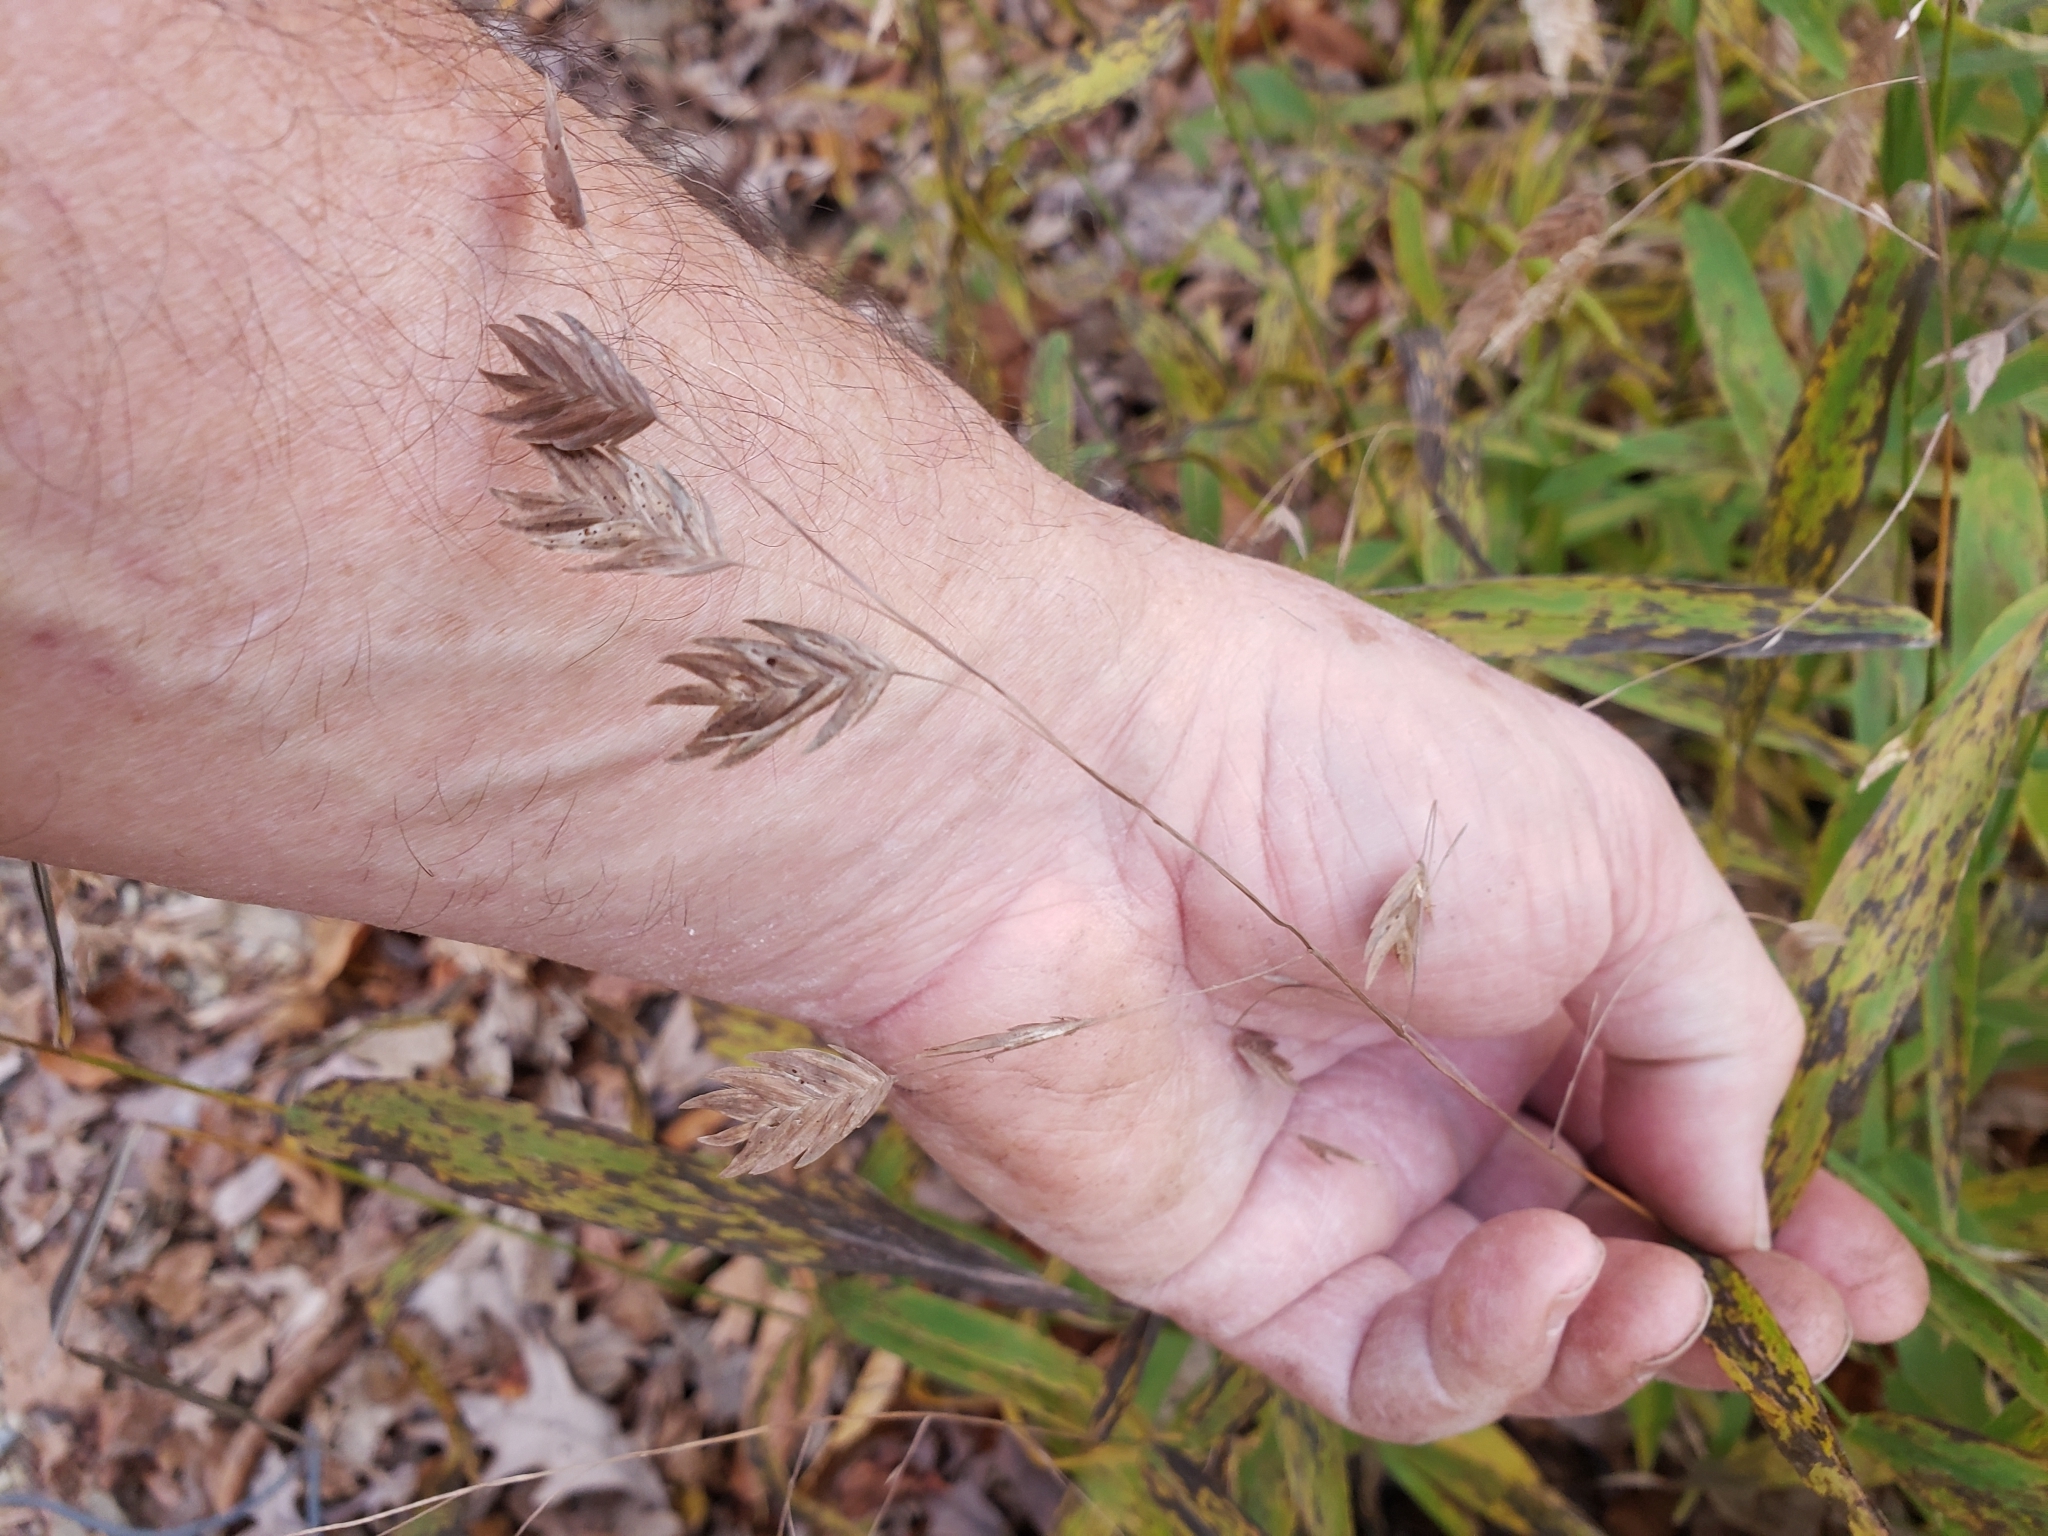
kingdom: Plantae
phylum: Tracheophyta
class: Liliopsida
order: Poales
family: Poaceae
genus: Chasmanthium
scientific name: Chasmanthium latifolium
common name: Broad-leaved chasmanthium
